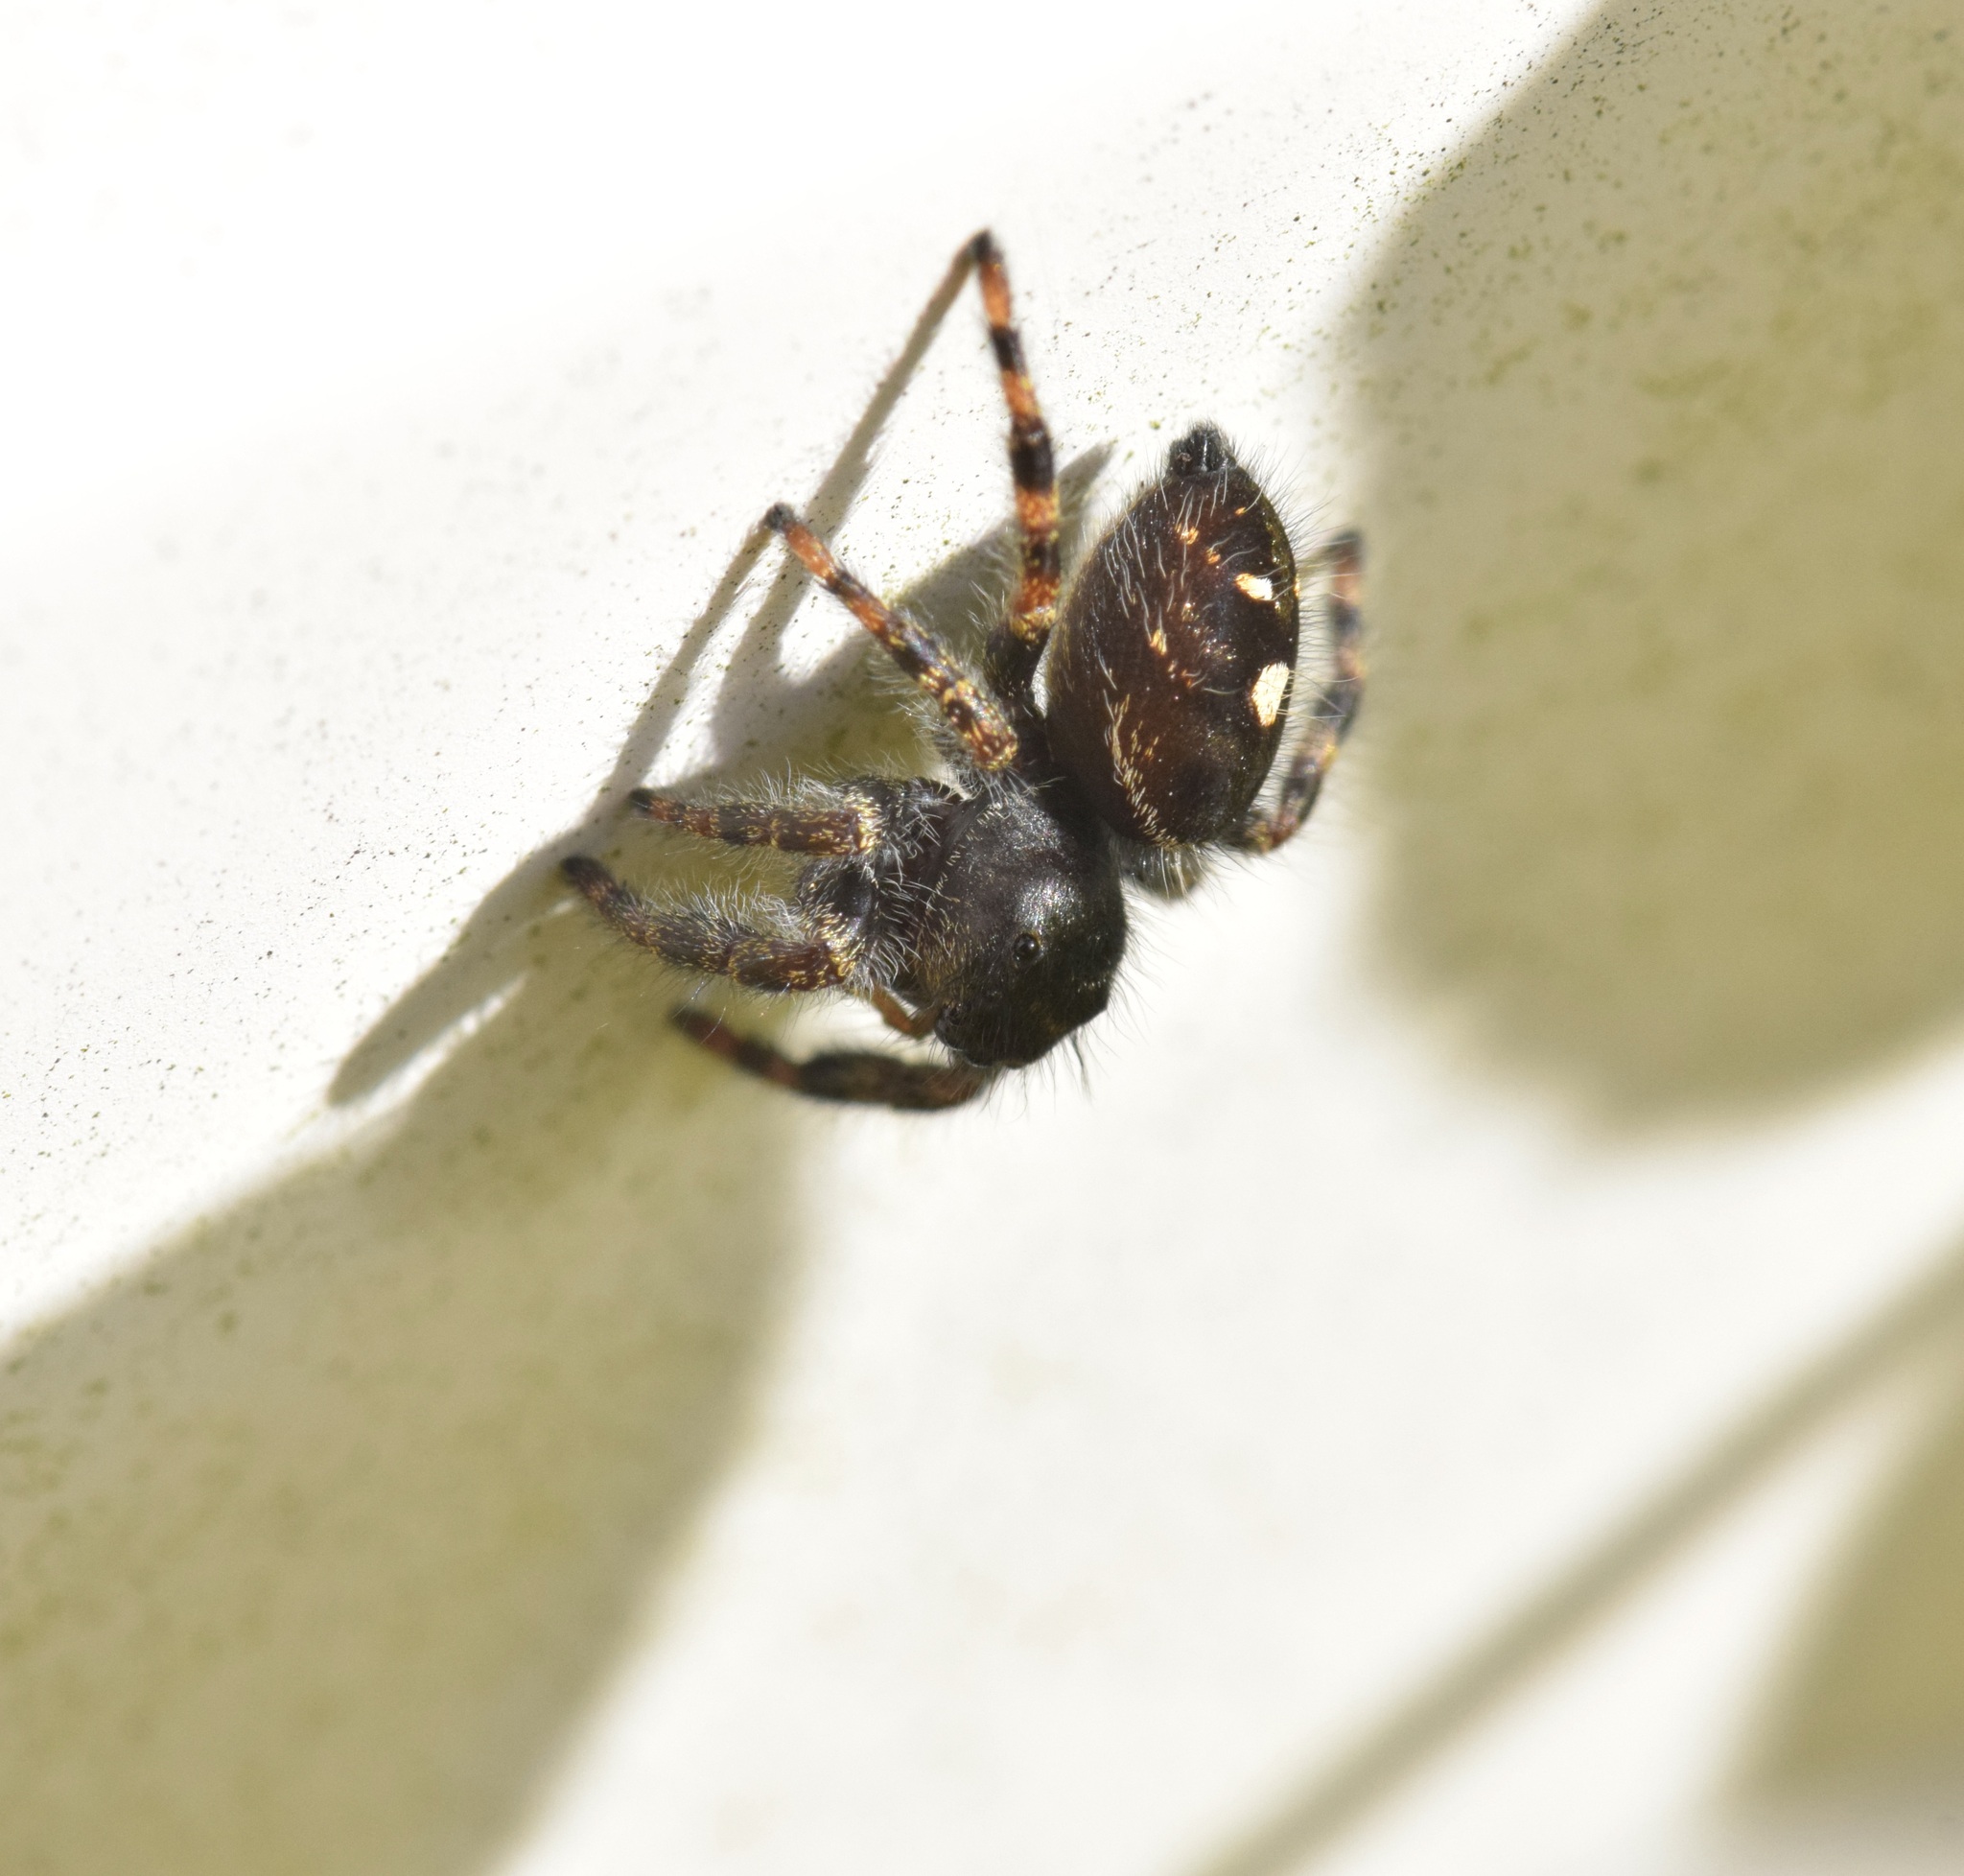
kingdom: Animalia
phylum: Arthropoda
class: Arachnida
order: Araneae
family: Salticidae
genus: Phidippus
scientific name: Phidippus audax
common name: Bold jumper
